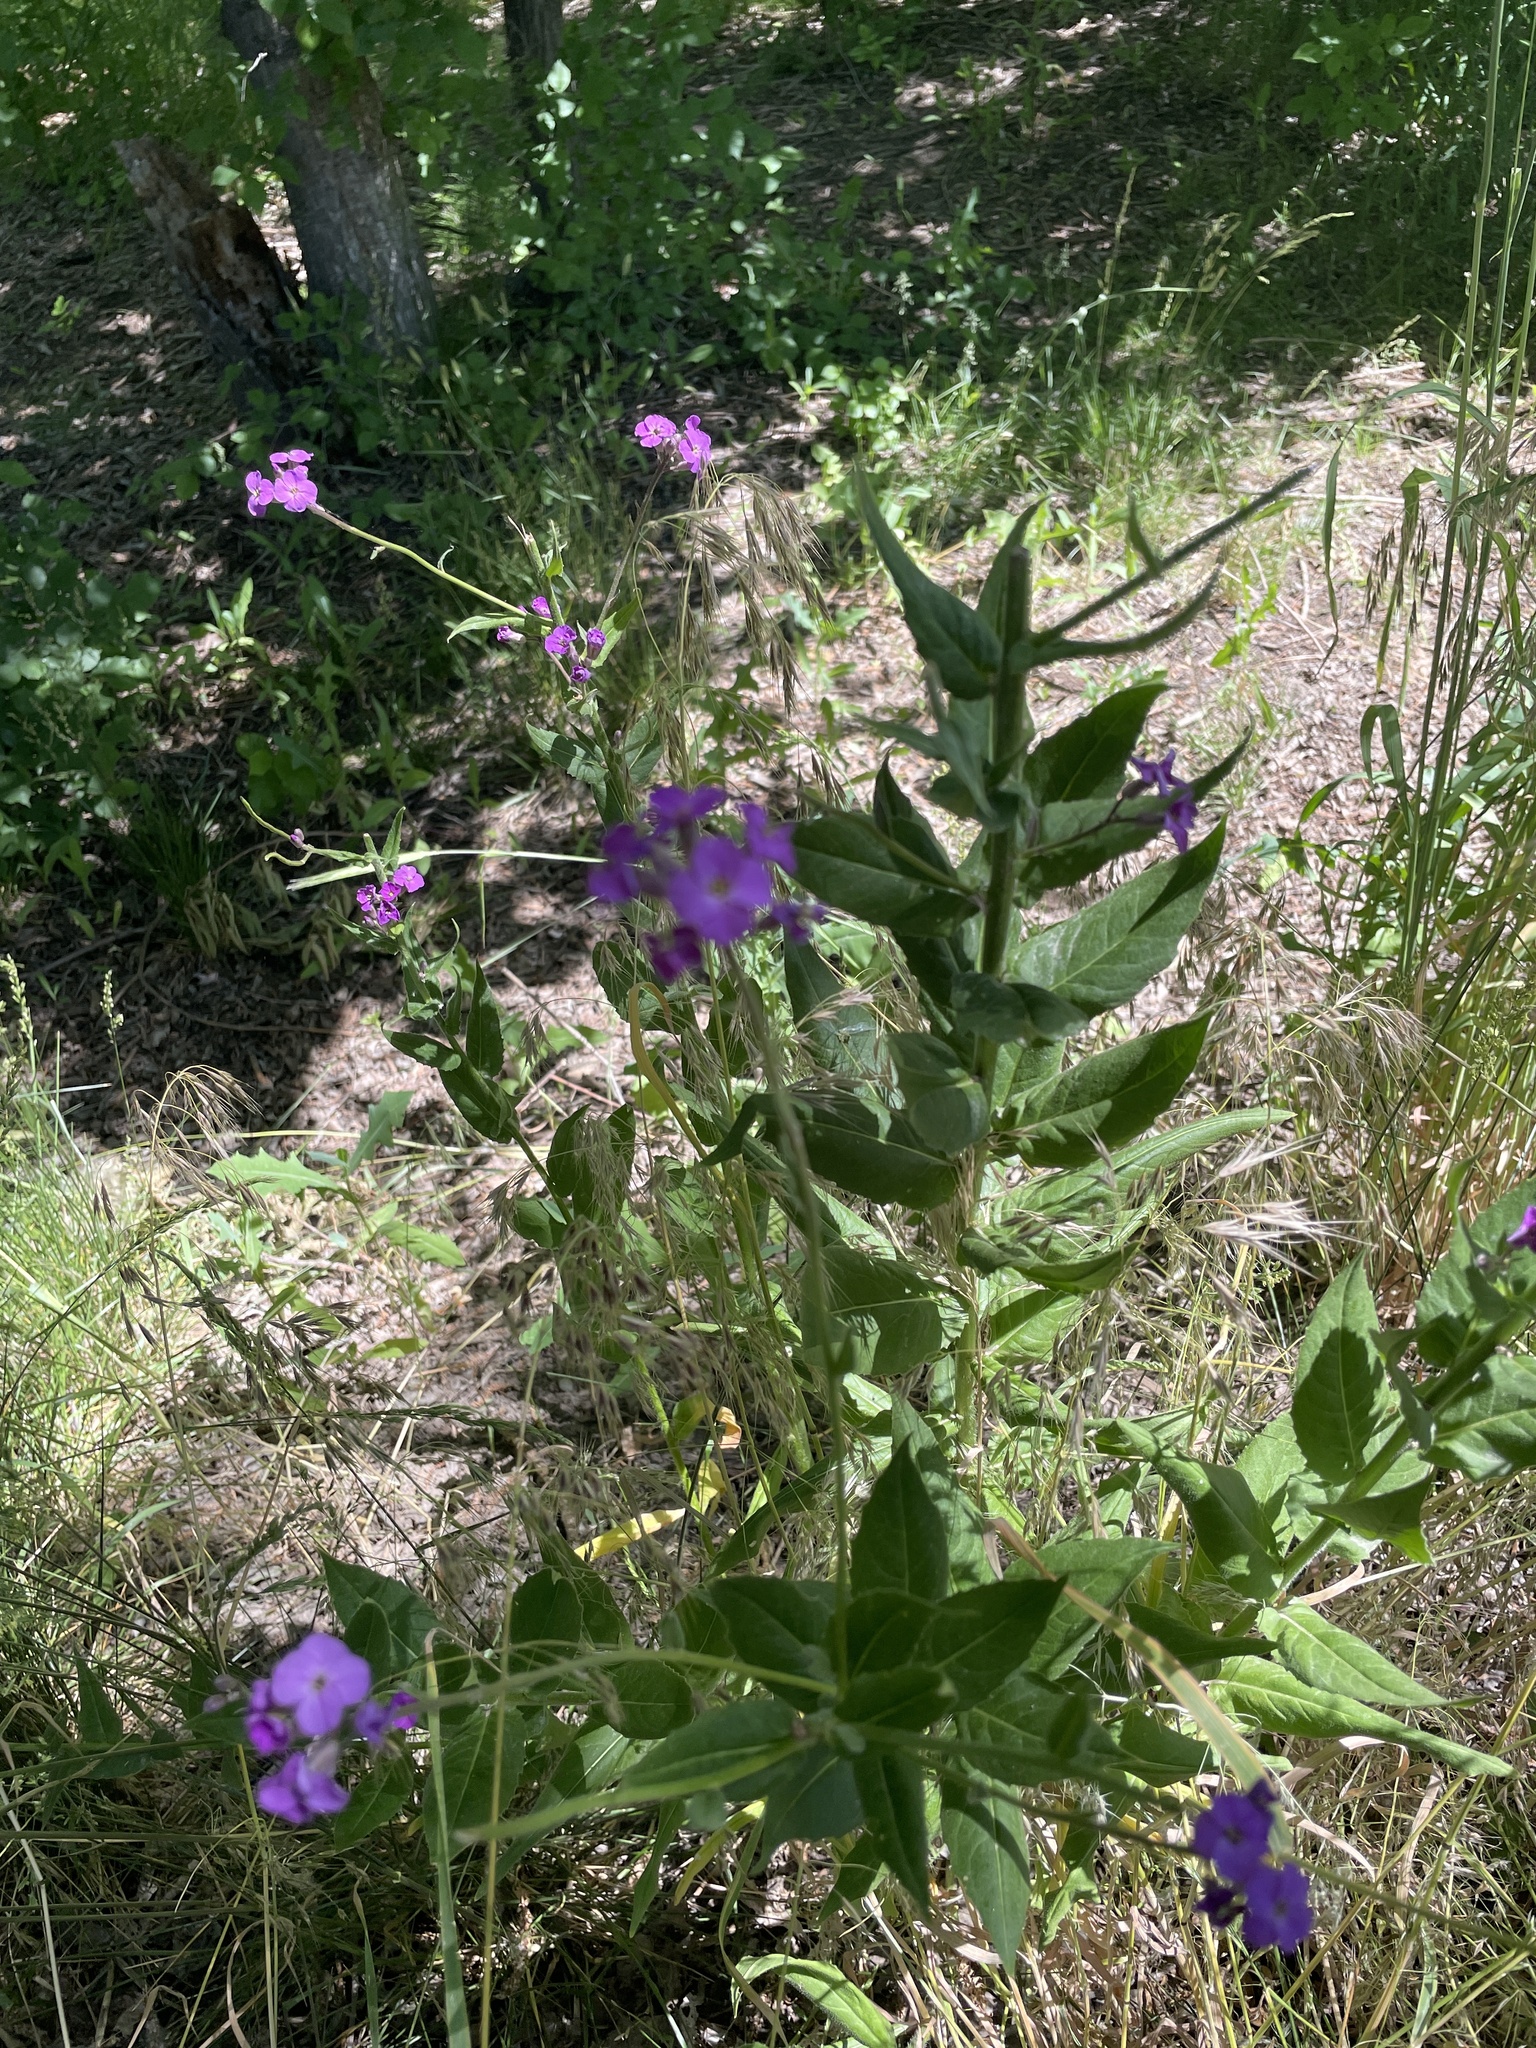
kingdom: Plantae
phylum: Tracheophyta
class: Magnoliopsida
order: Brassicales
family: Brassicaceae
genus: Hesperis
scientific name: Hesperis matronalis
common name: Dame's-violet
